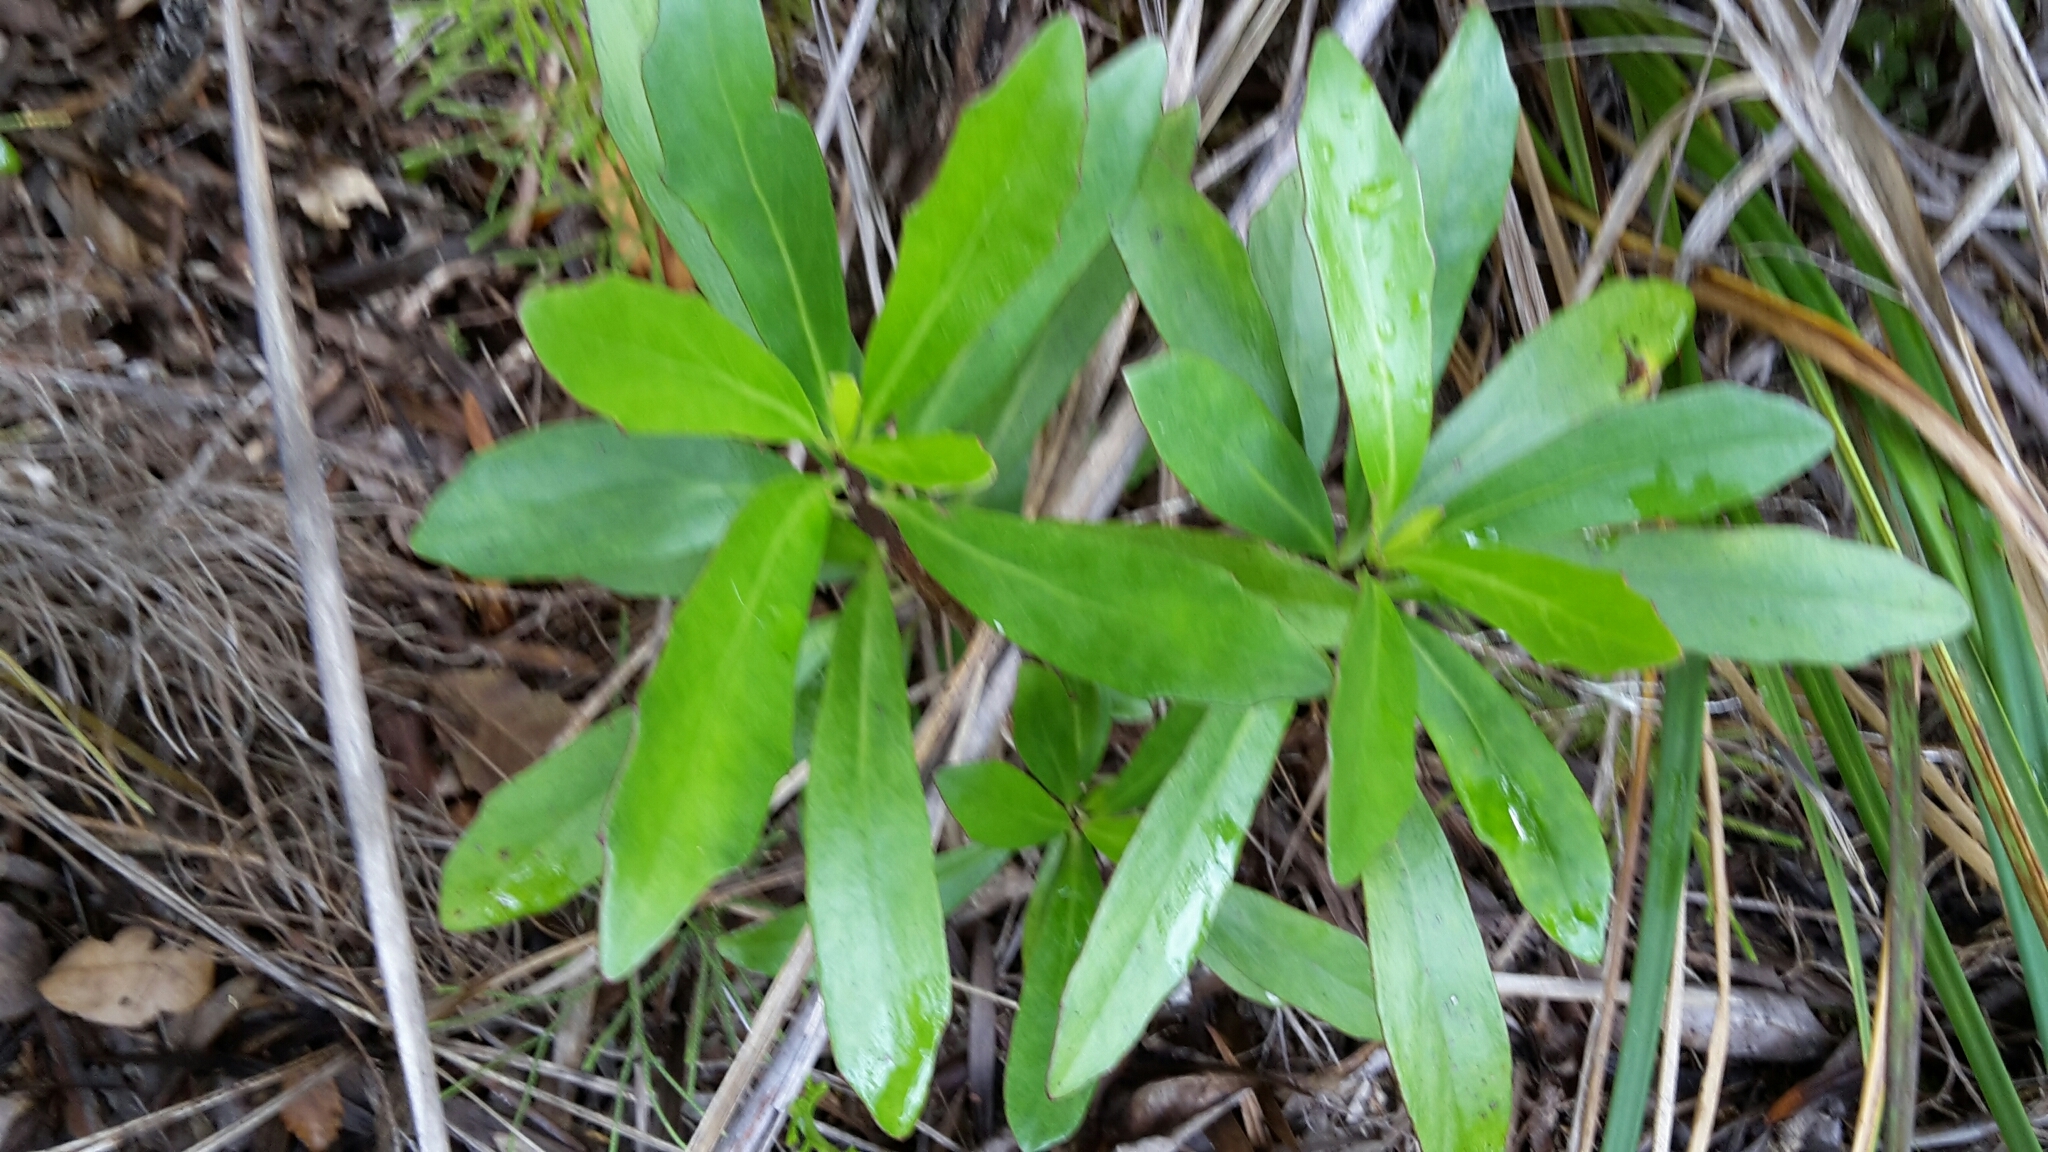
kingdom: Plantae
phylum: Tracheophyta
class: Magnoliopsida
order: Asterales
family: Asteraceae
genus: Brachyglottis
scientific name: Brachyglottis kirkii
